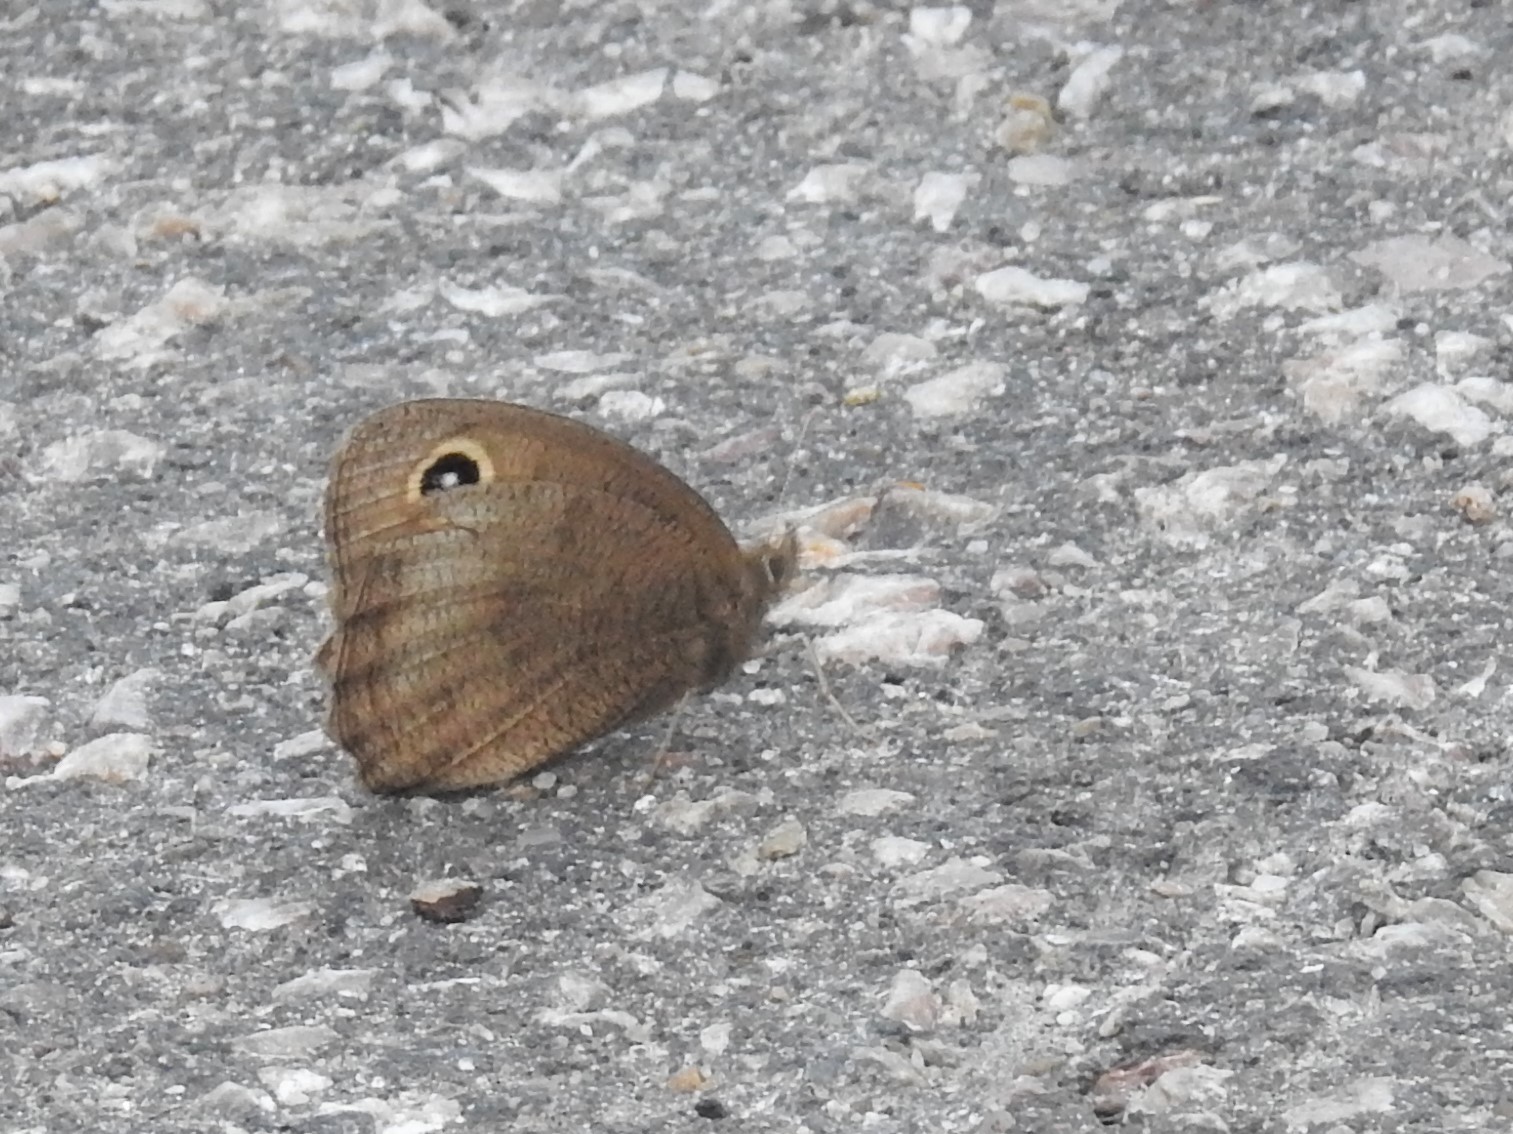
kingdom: Animalia
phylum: Arthropoda
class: Insecta
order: Lepidoptera
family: Nymphalidae
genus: Cercyonis
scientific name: Cercyonis pegala
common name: Common wood-nymph
